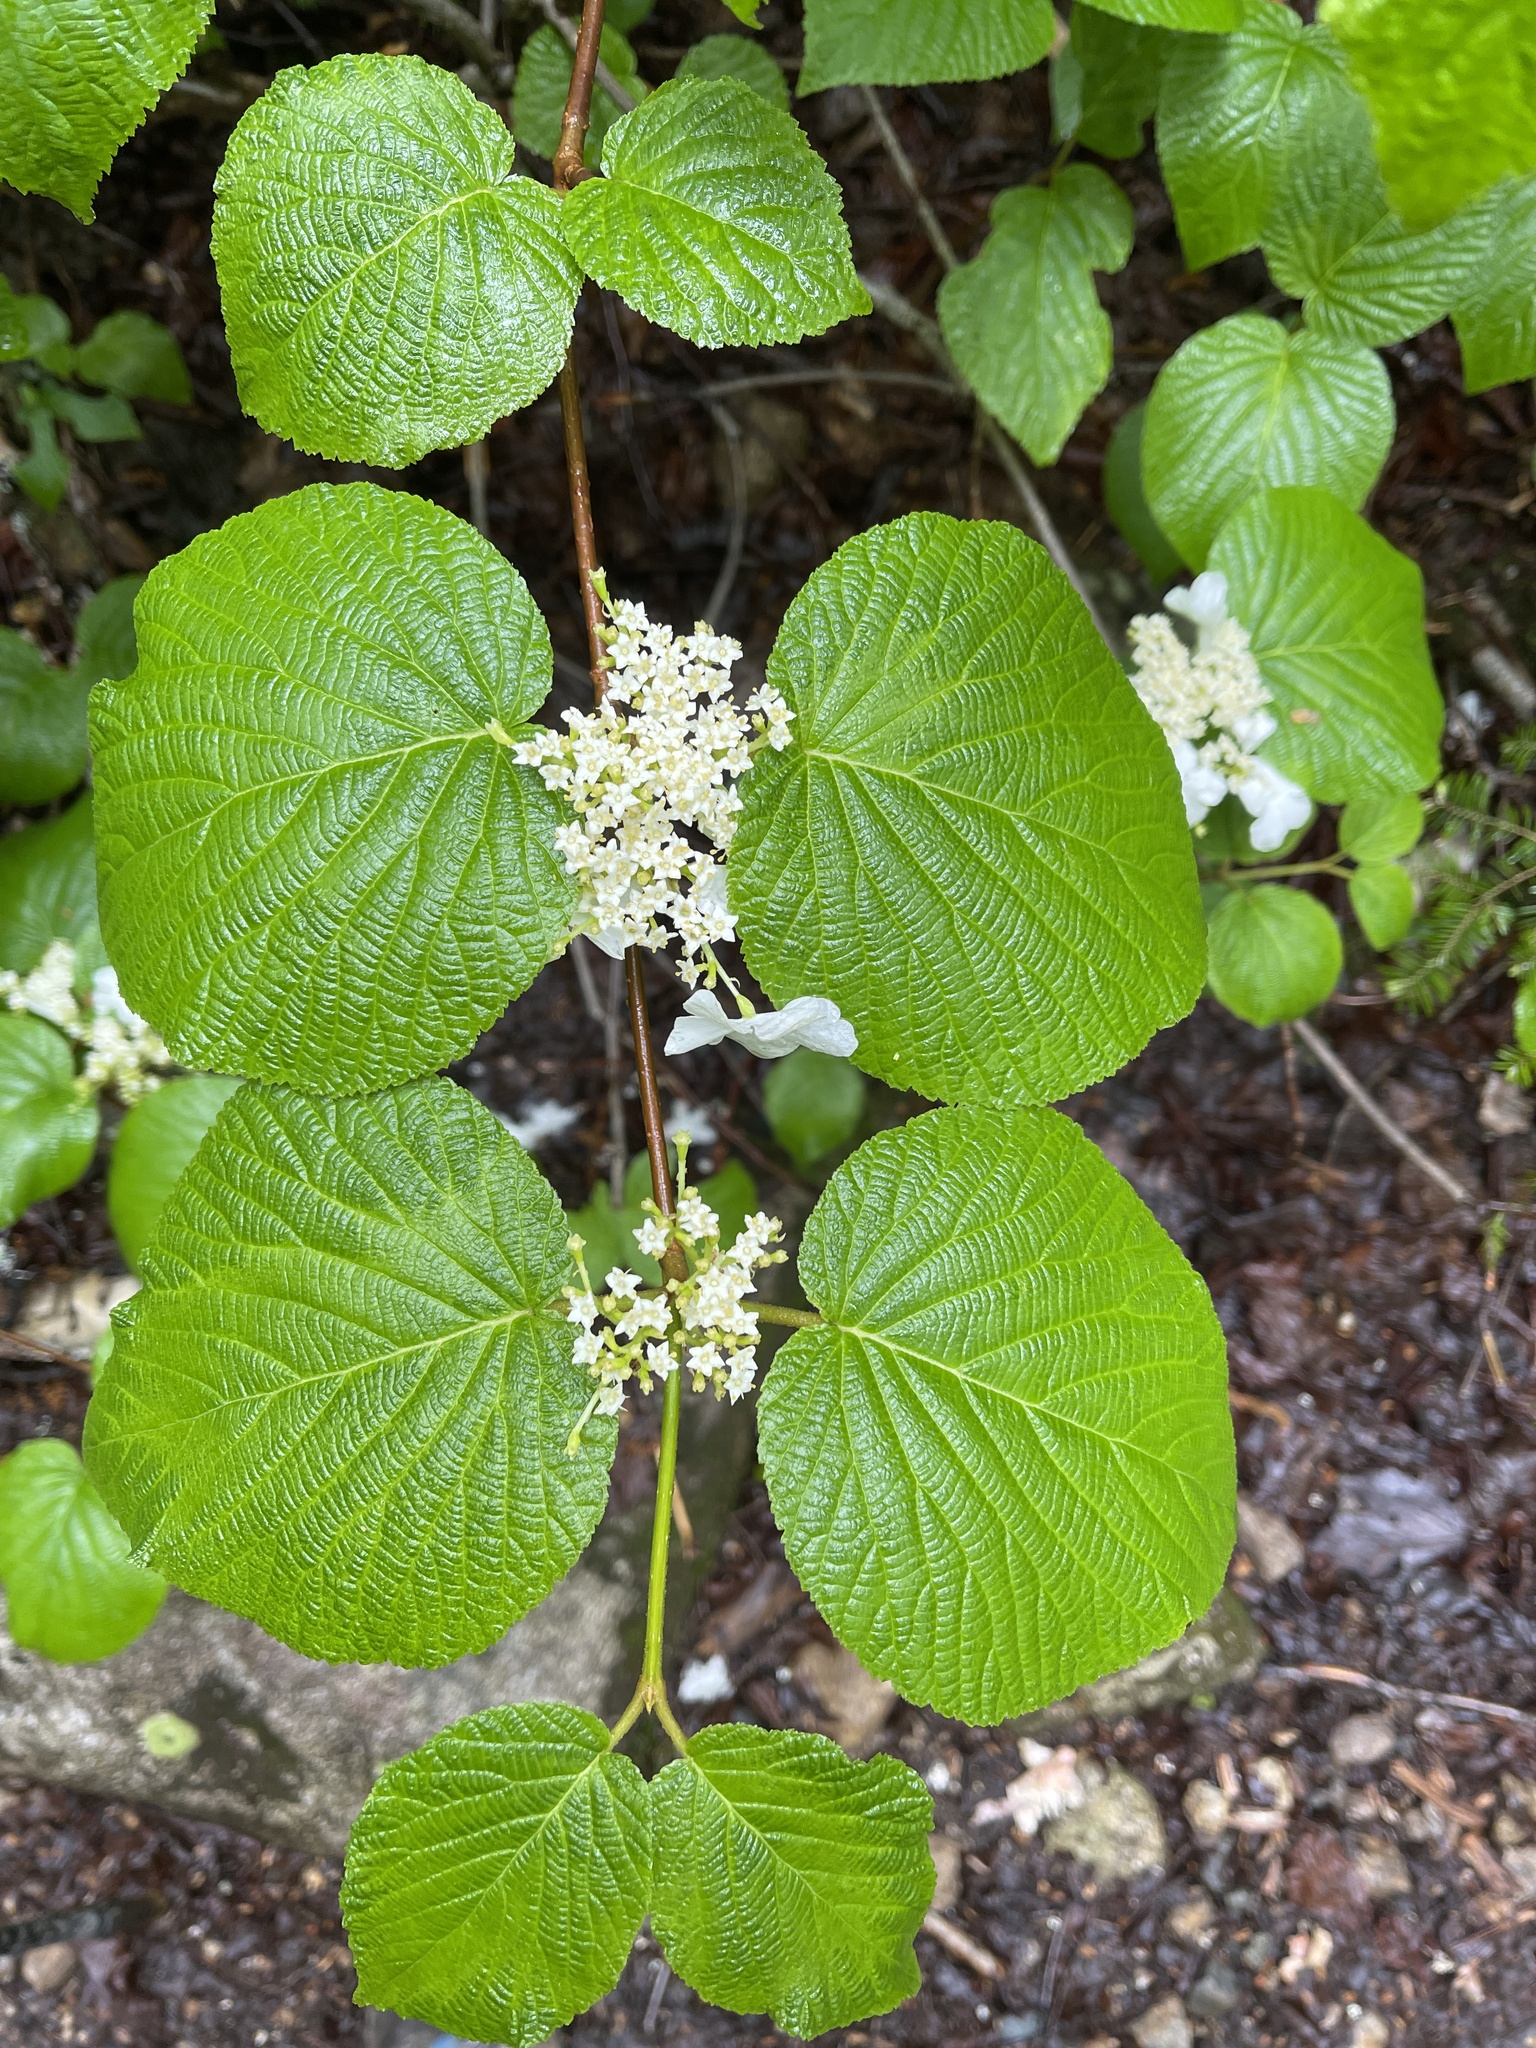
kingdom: Plantae
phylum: Tracheophyta
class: Magnoliopsida
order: Dipsacales
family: Viburnaceae
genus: Viburnum
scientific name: Viburnum lantanoides
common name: Hobblebush
